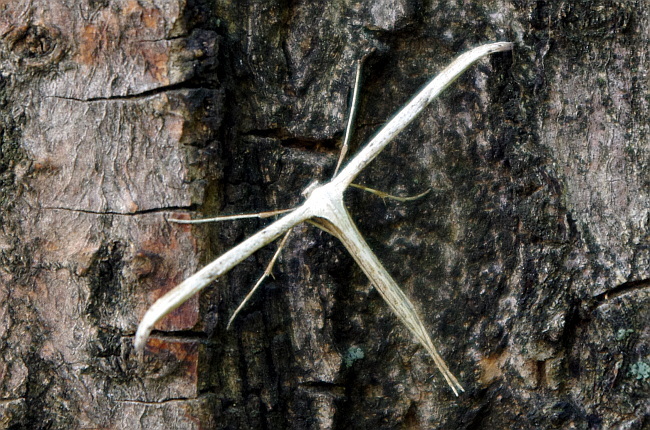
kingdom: Animalia
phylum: Arthropoda
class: Insecta
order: Lepidoptera
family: Pterophoridae
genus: Emmelina
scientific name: Emmelina monodactyla
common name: Common plume
